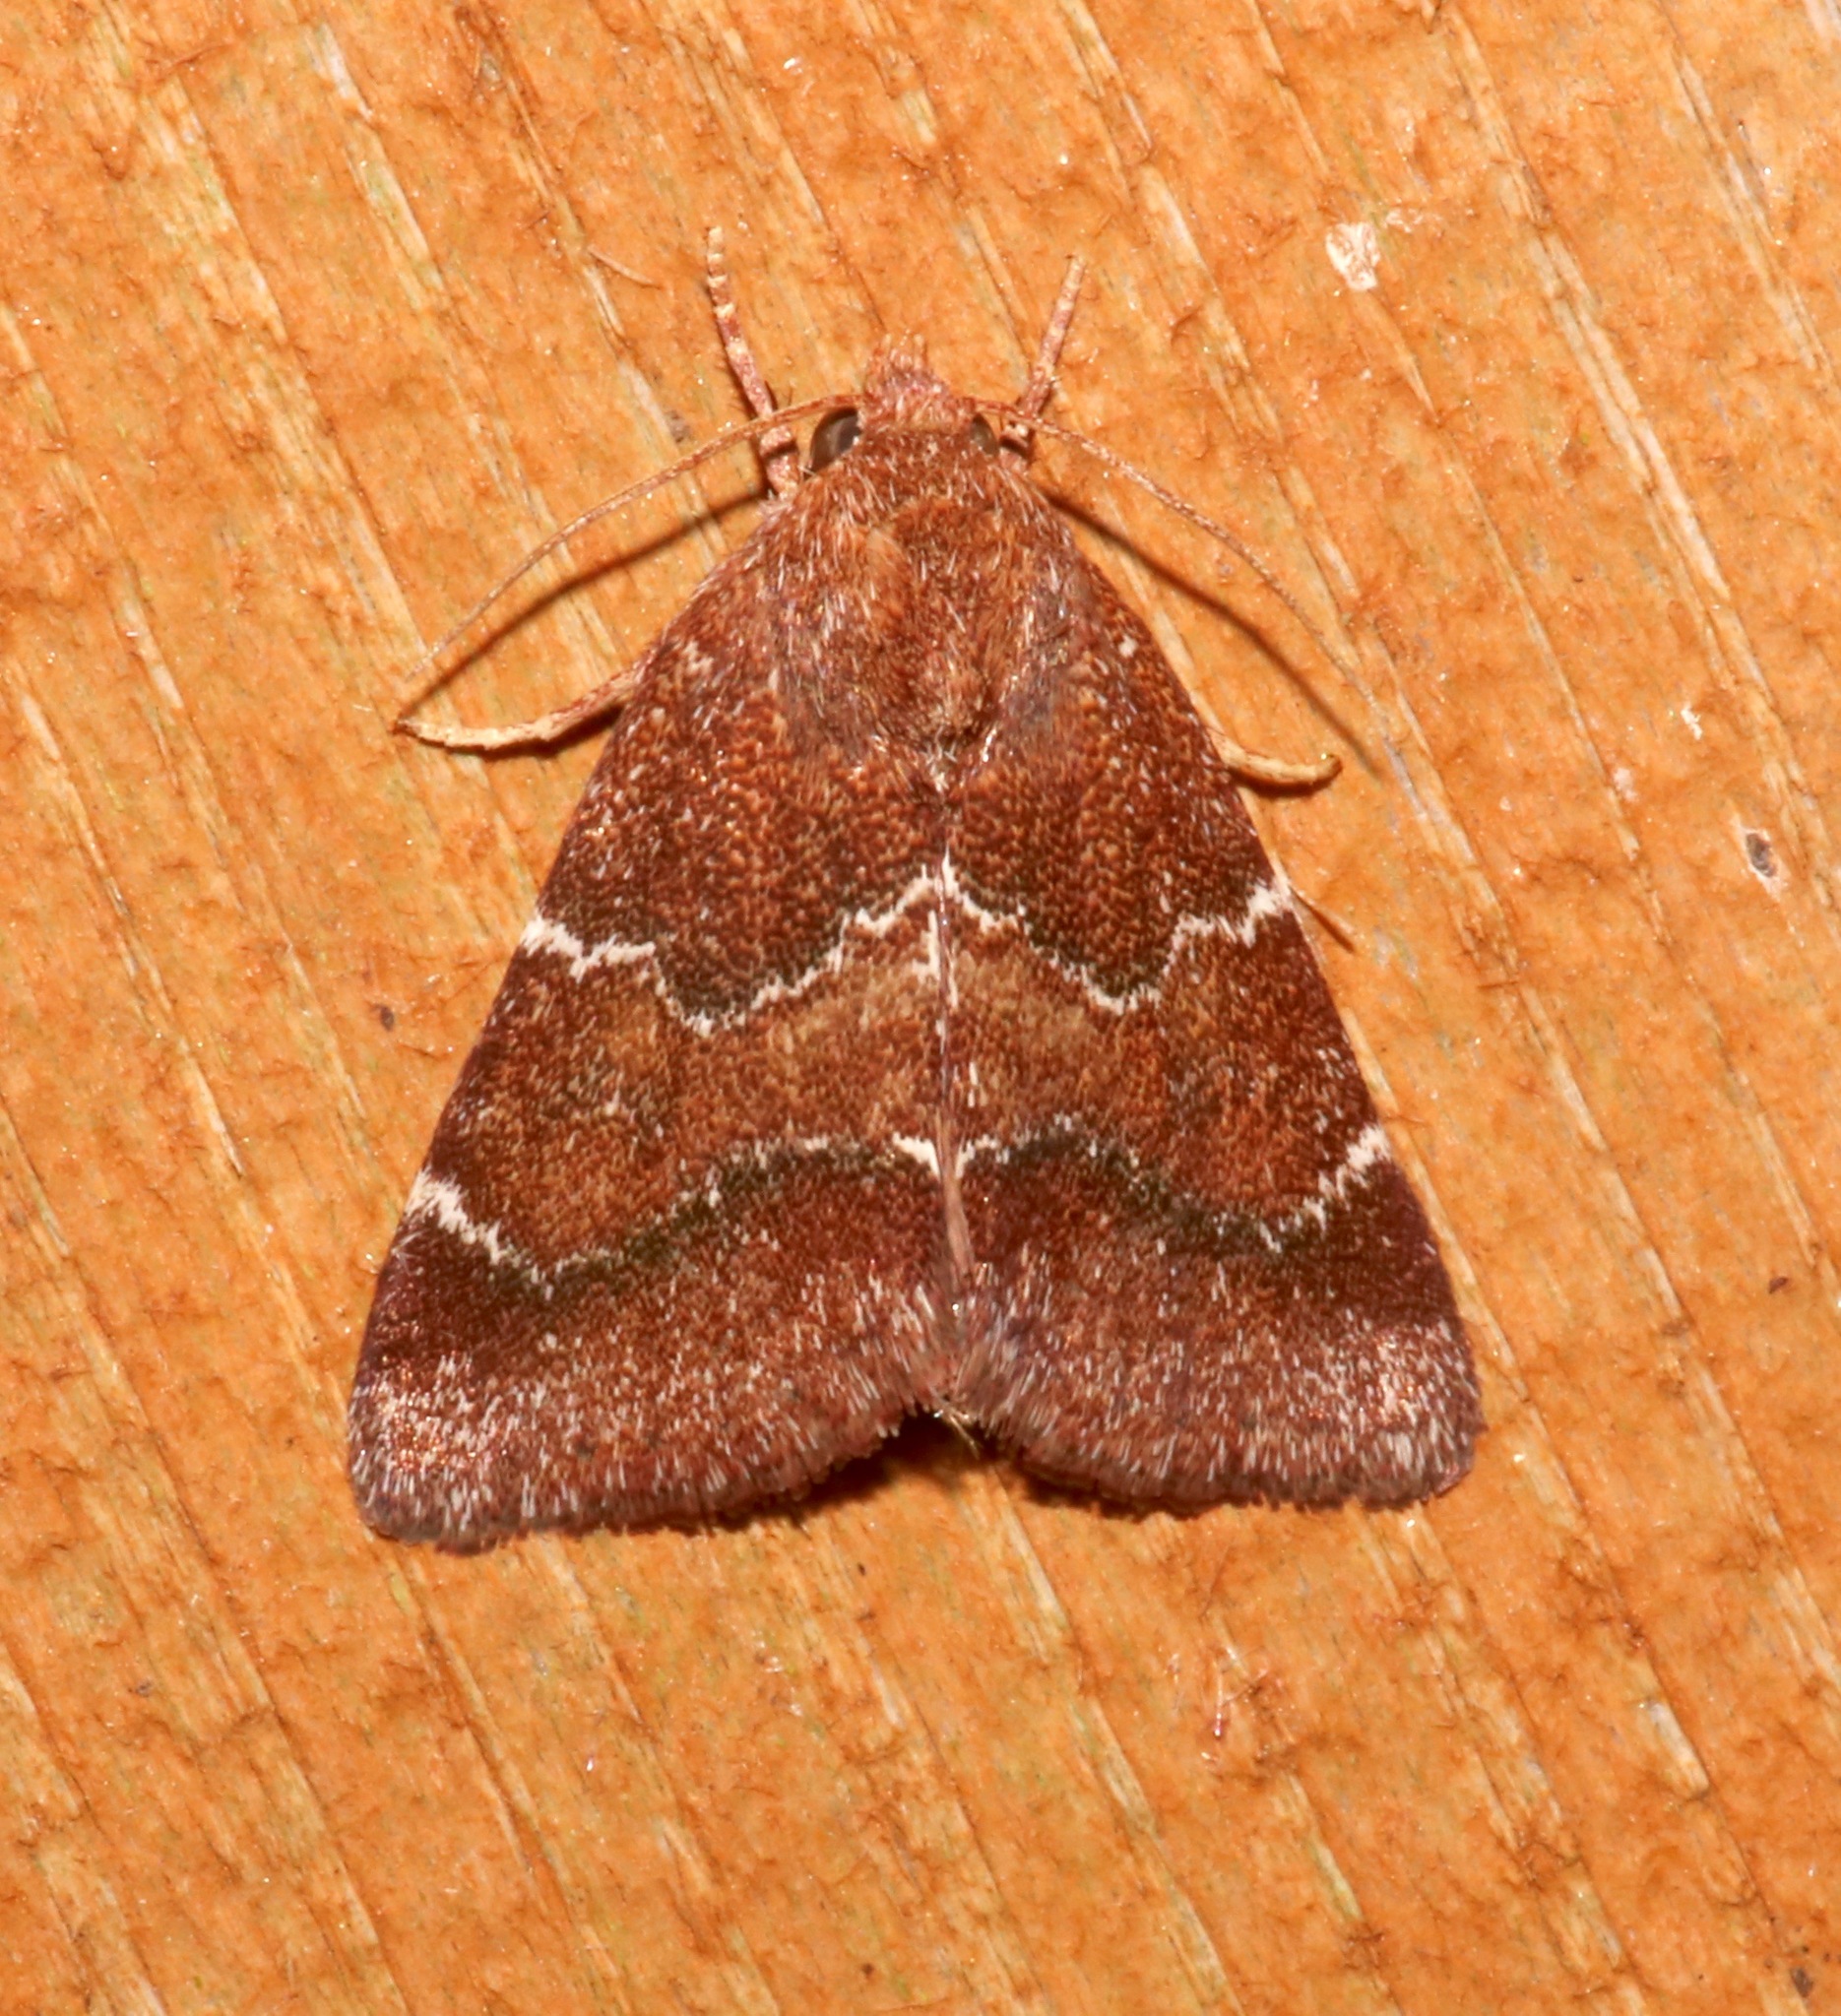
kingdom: Animalia
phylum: Arthropoda
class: Insecta
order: Lepidoptera
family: Noctuidae
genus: Schinia
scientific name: Schinia saturata
